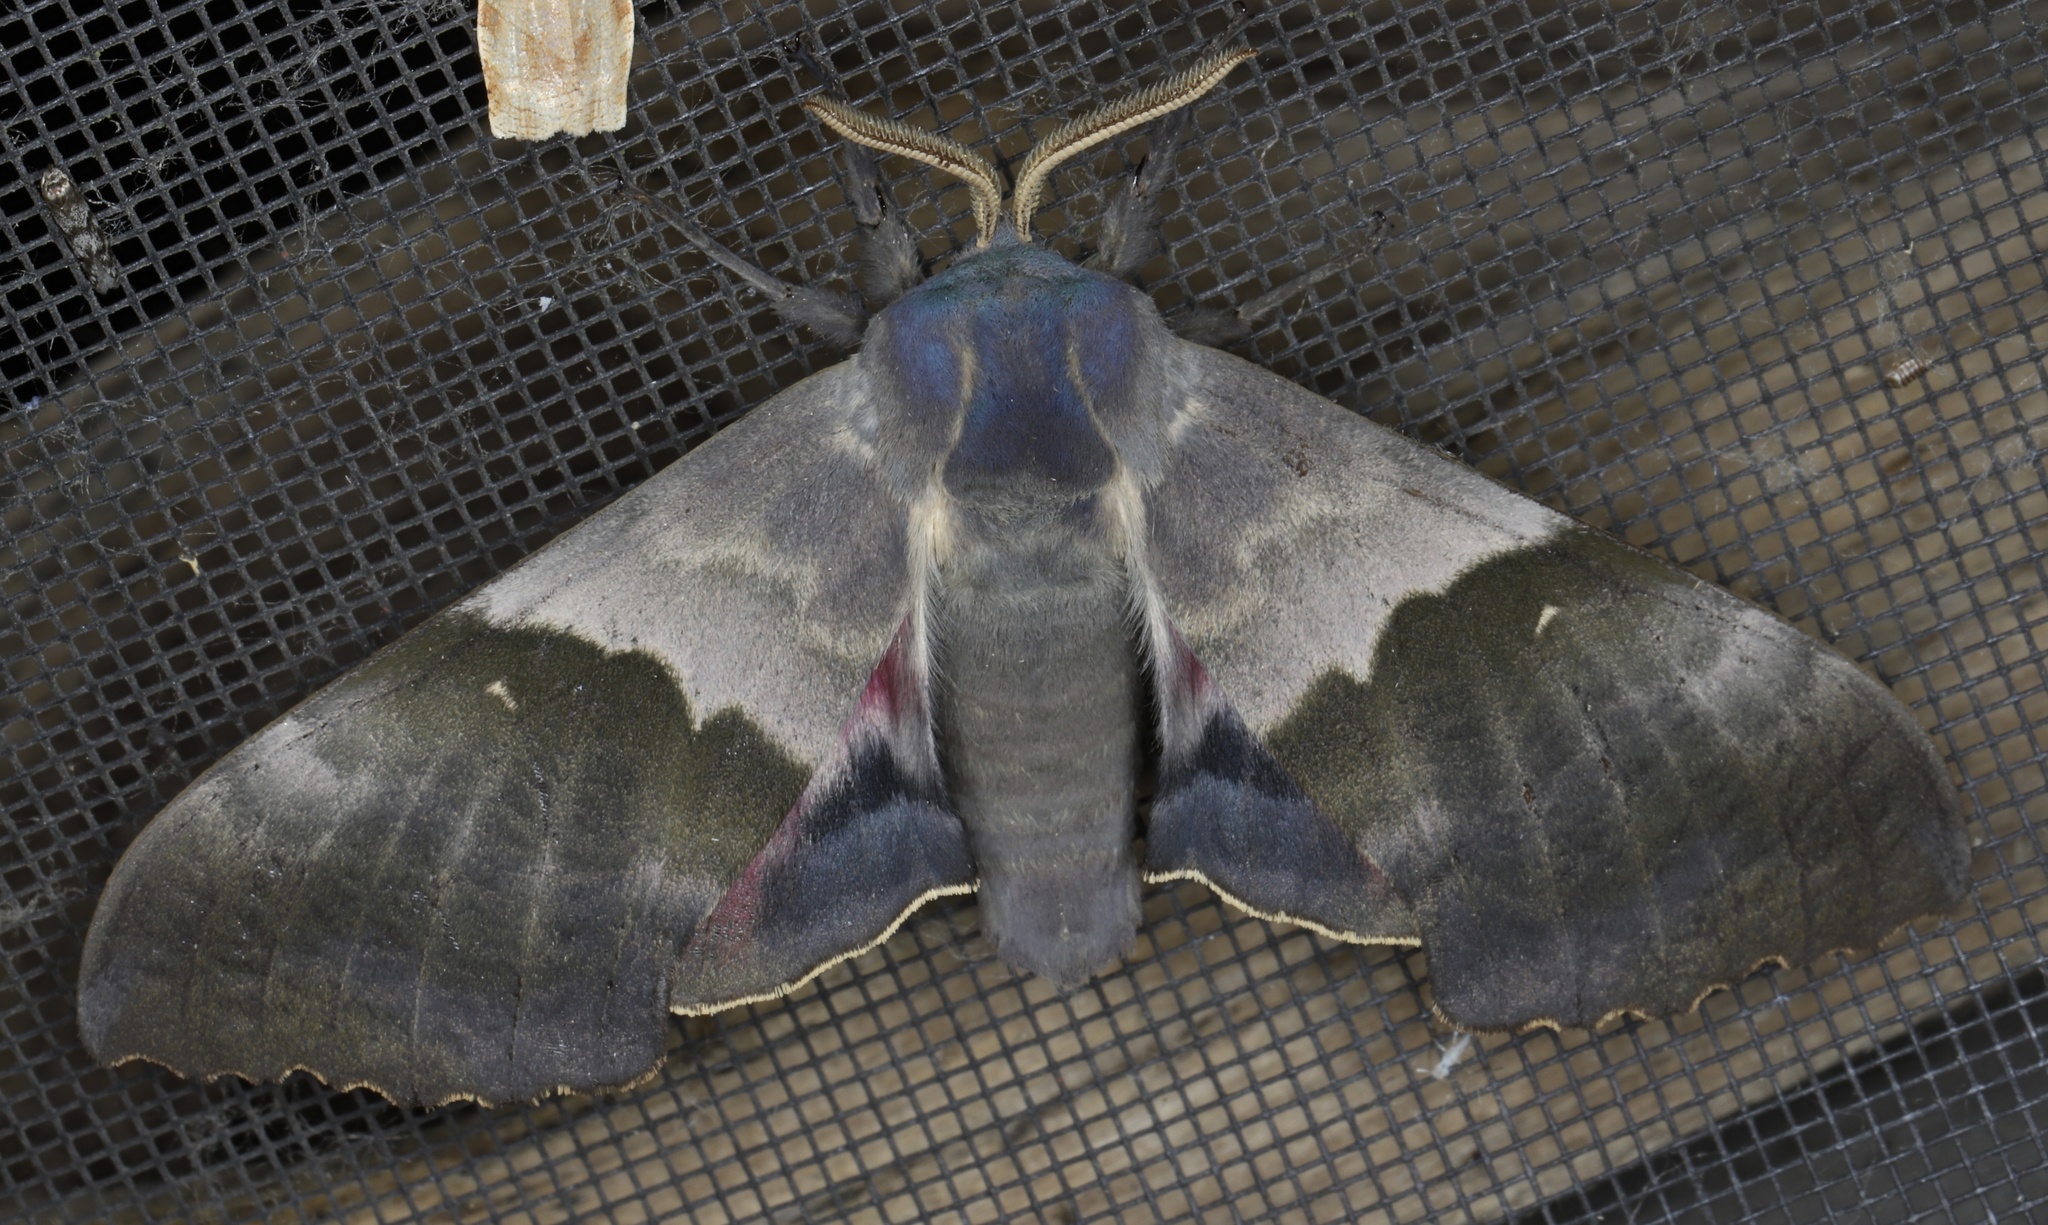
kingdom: Animalia
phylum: Arthropoda
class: Insecta
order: Lepidoptera
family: Sphingidae
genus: Pachysphinx
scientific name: Pachysphinx modesta
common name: Big poplar sphinx
